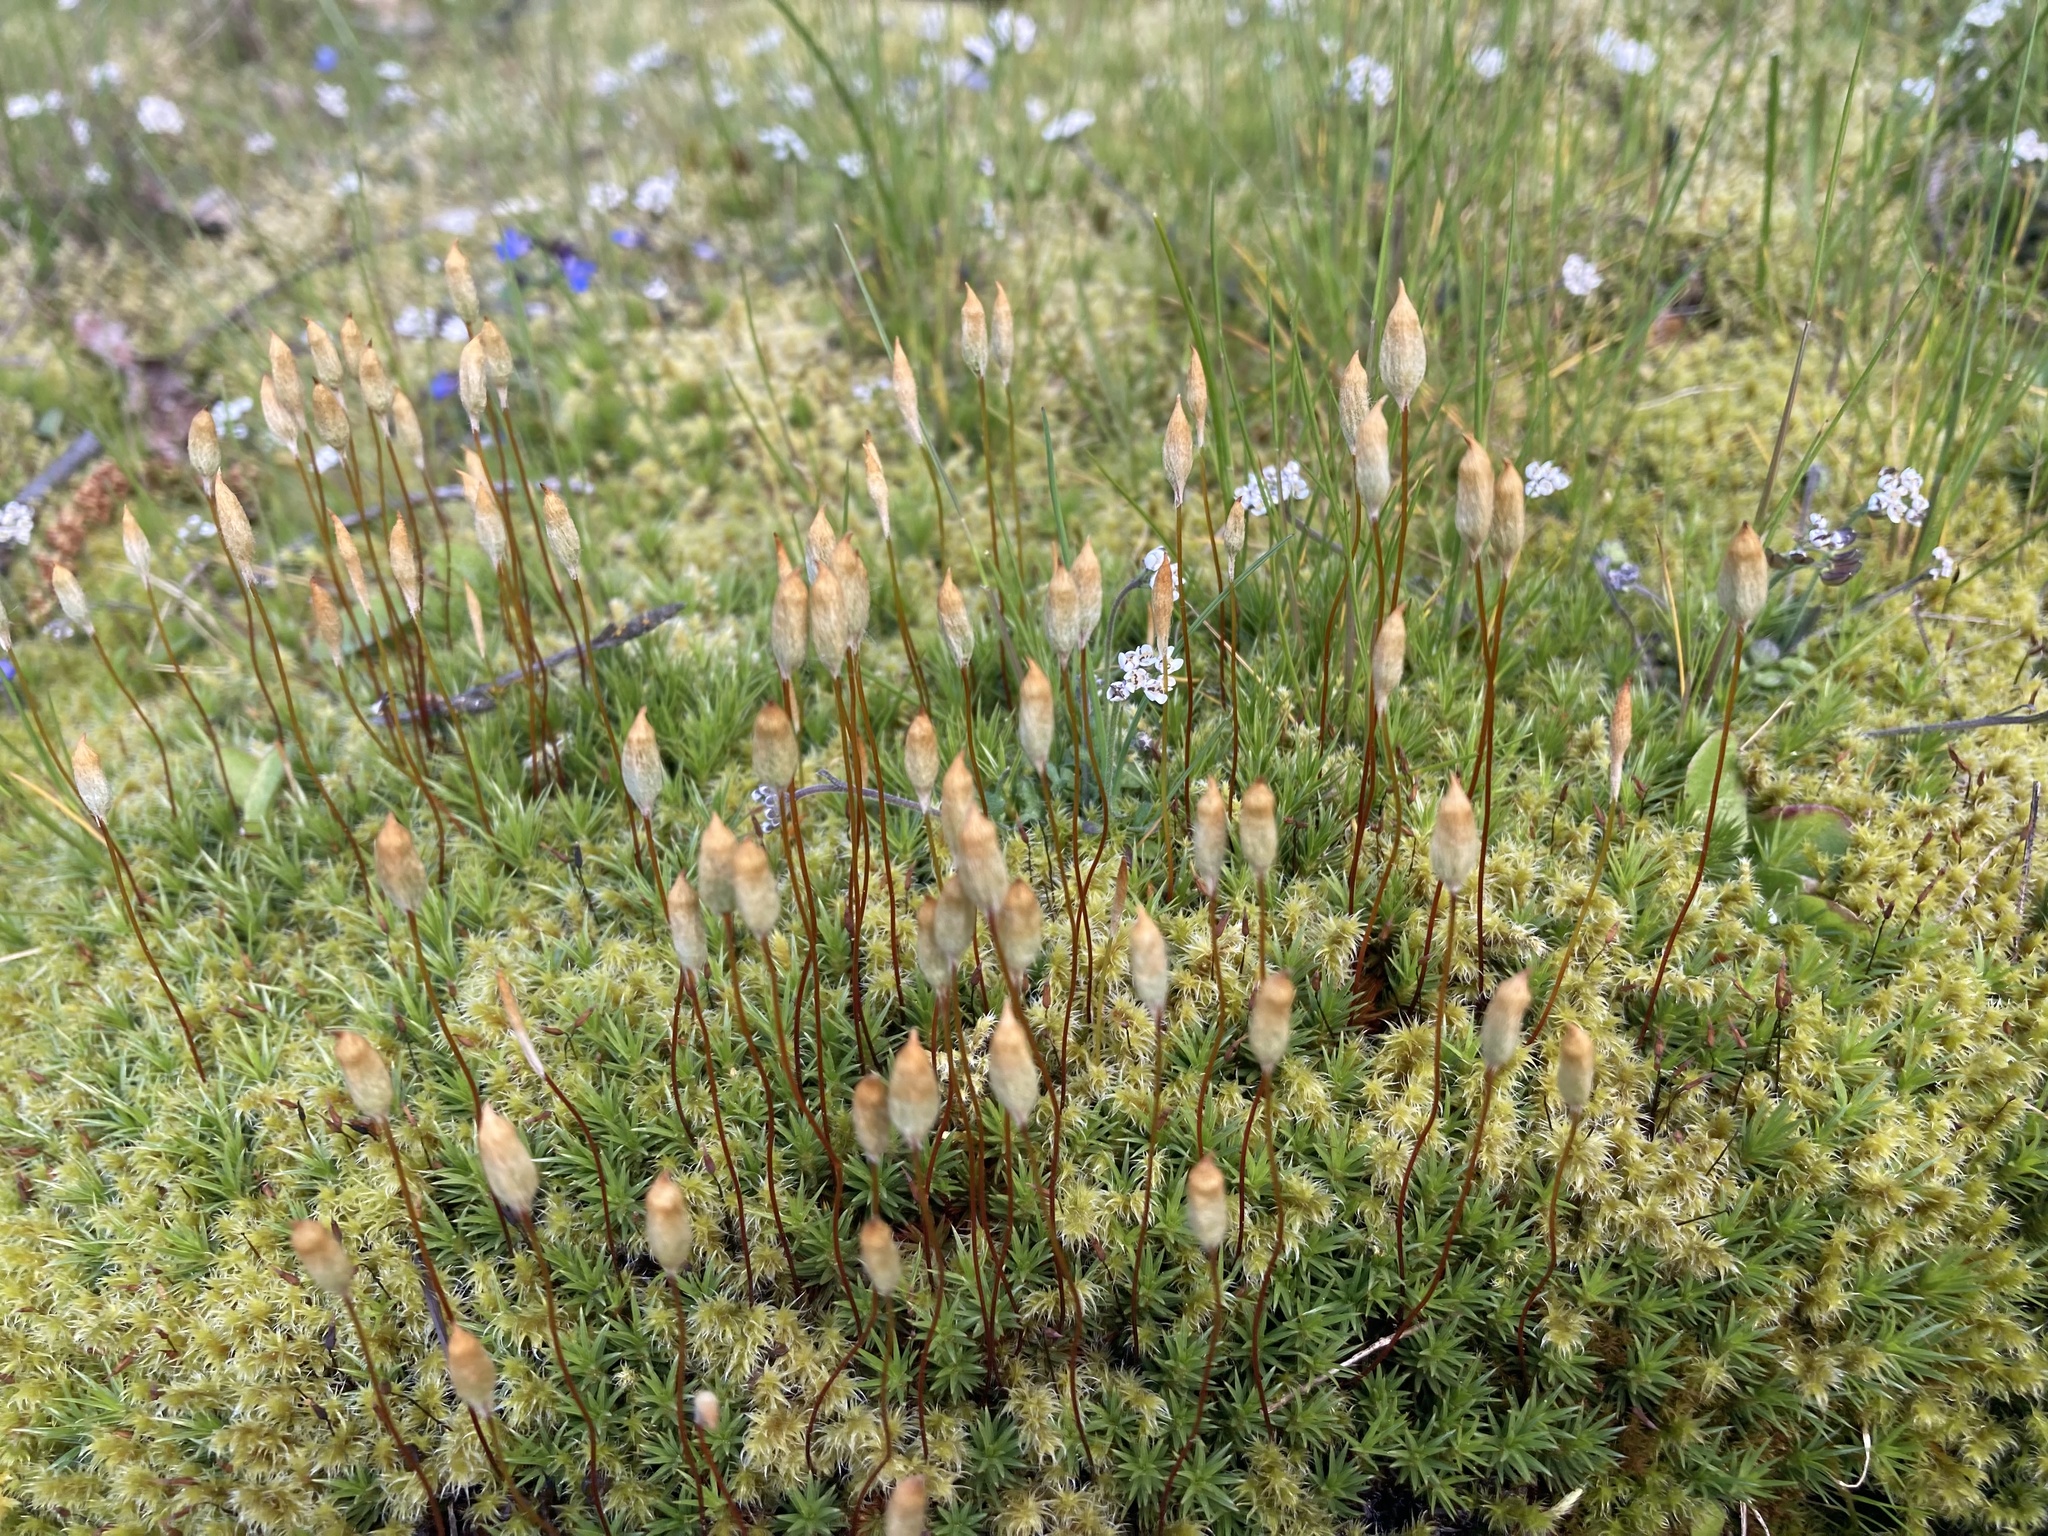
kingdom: Plantae
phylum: Bryophyta
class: Polytrichopsida
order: Polytrichales
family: Polytrichaceae
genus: Polytrichum
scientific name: Polytrichum juniperinum
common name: Juniper haircap moss
